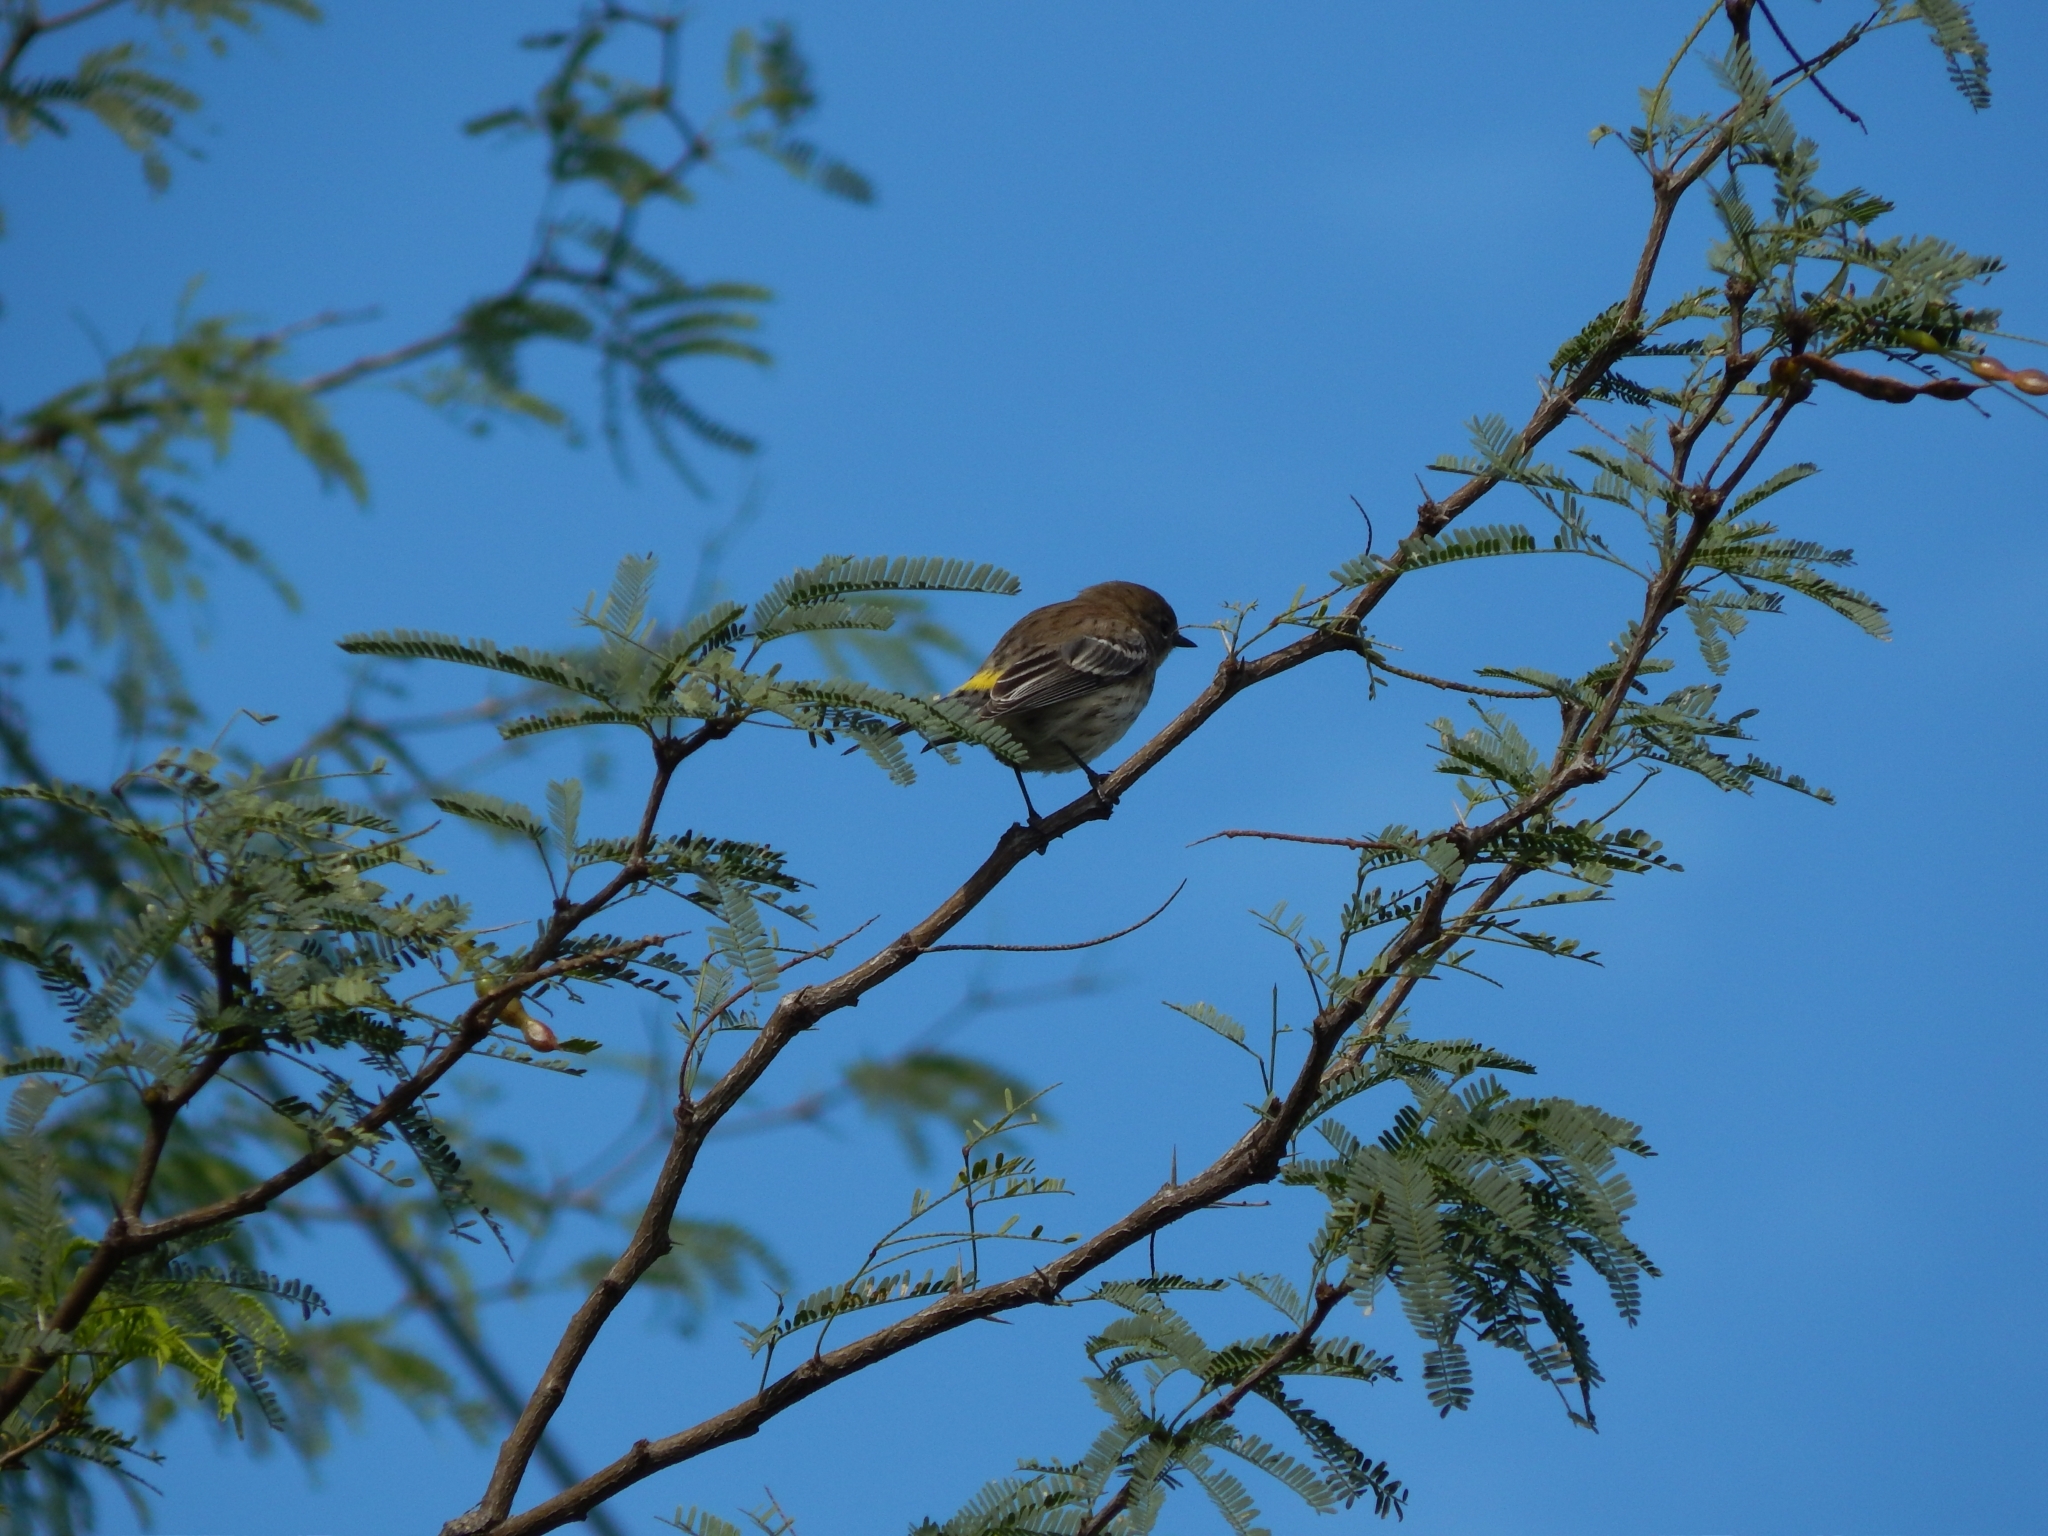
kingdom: Animalia
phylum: Chordata
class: Aves
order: Passeriformes
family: Parulidae
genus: Setophaga
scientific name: Setophaga coronata
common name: Myrtle warbler
